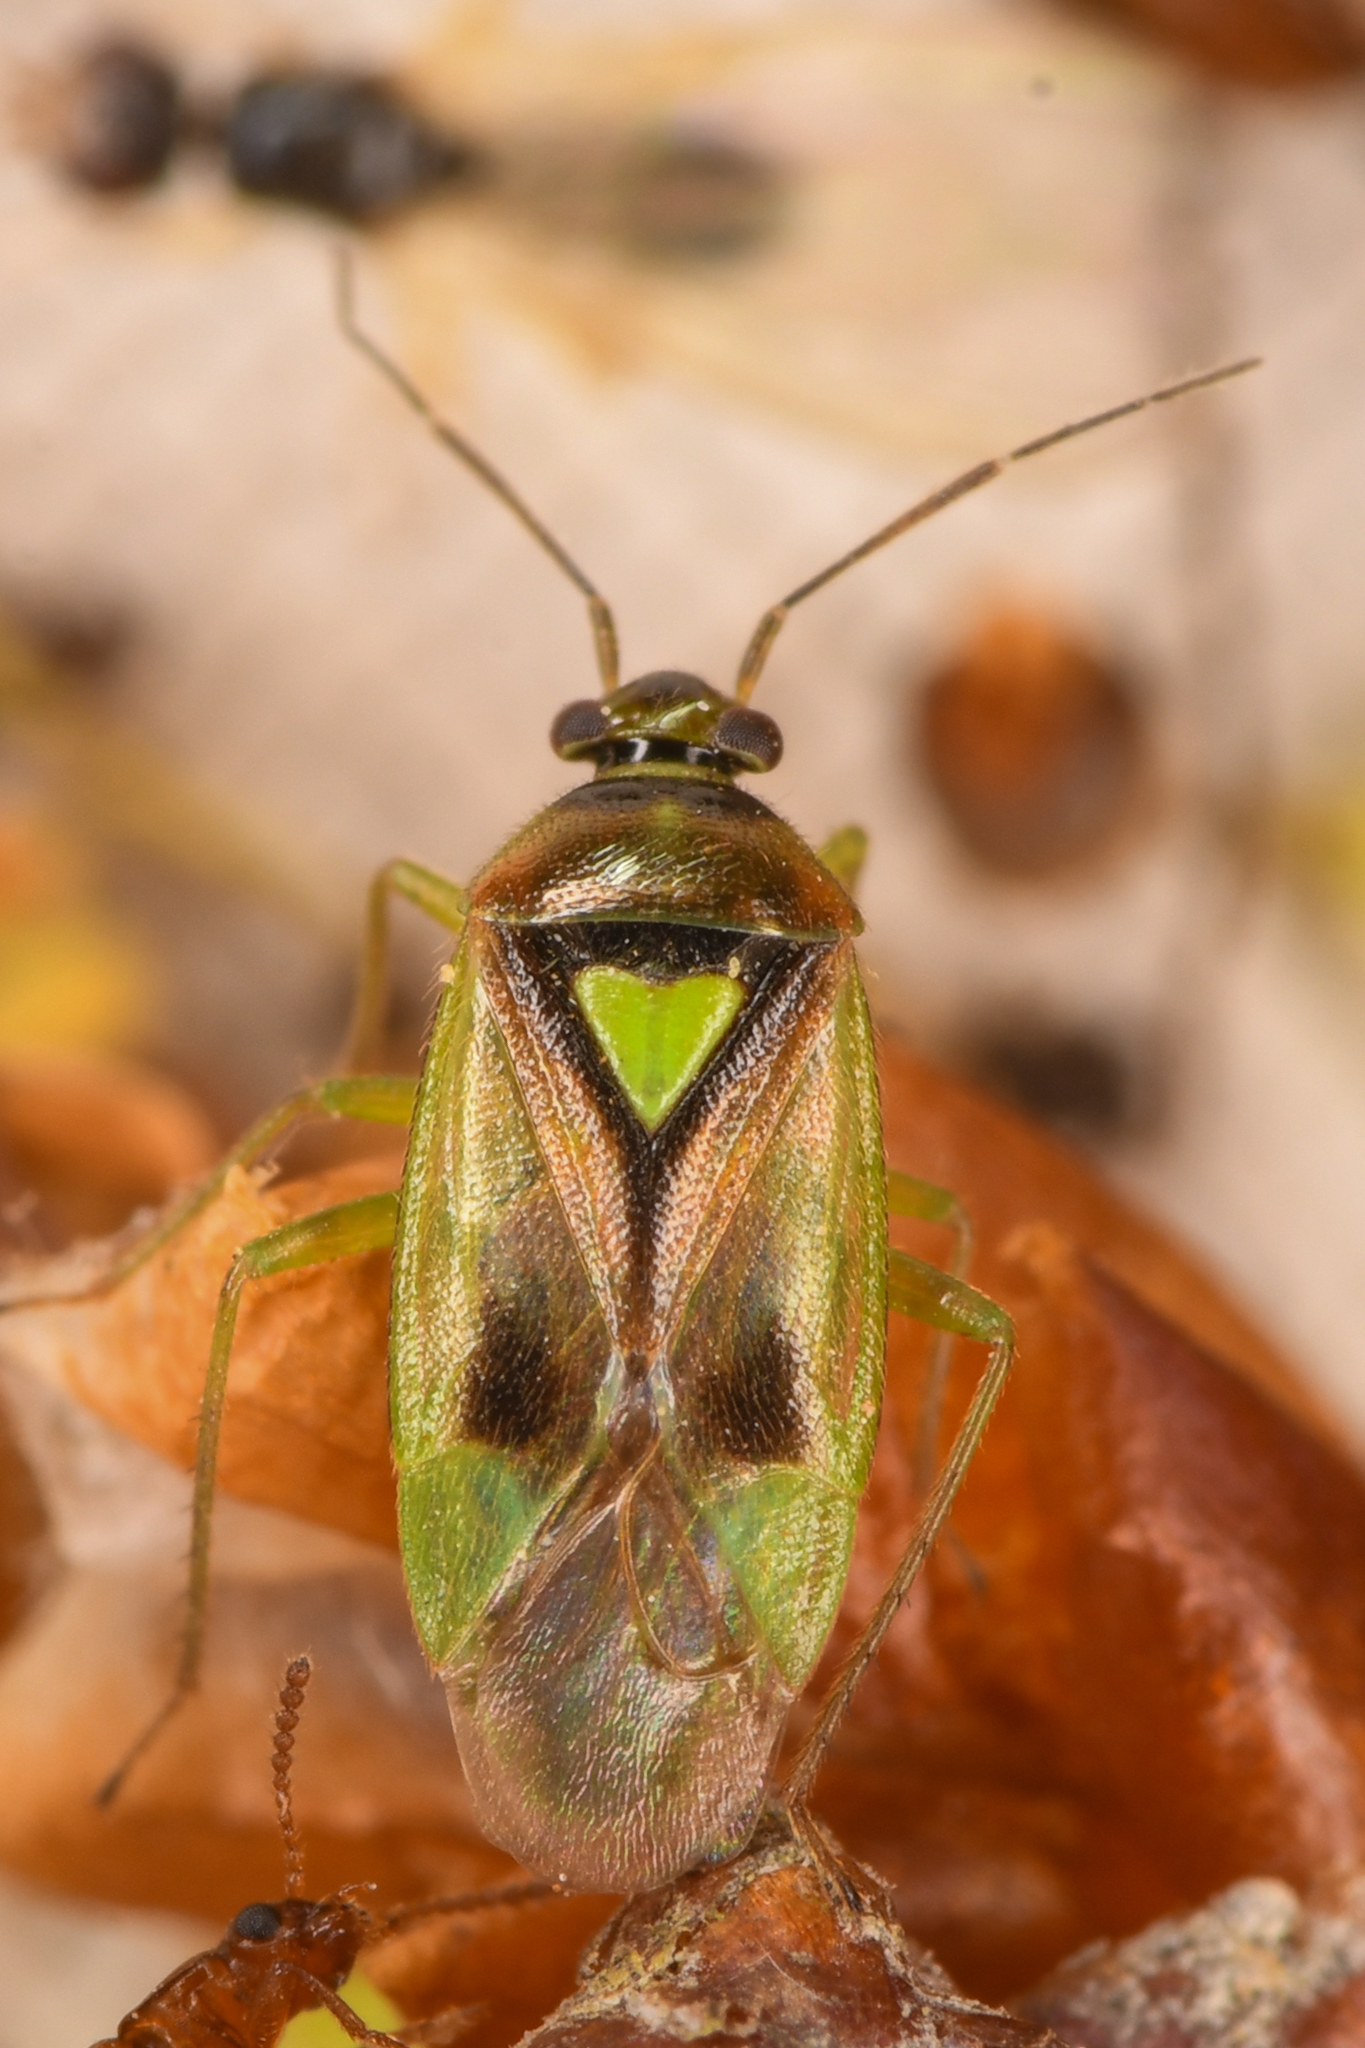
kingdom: Animalia
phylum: Arthropoda
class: Insecta
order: Hemiptera
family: Miridae
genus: Orthops
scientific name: Orthops scutellatus
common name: Plant bug
